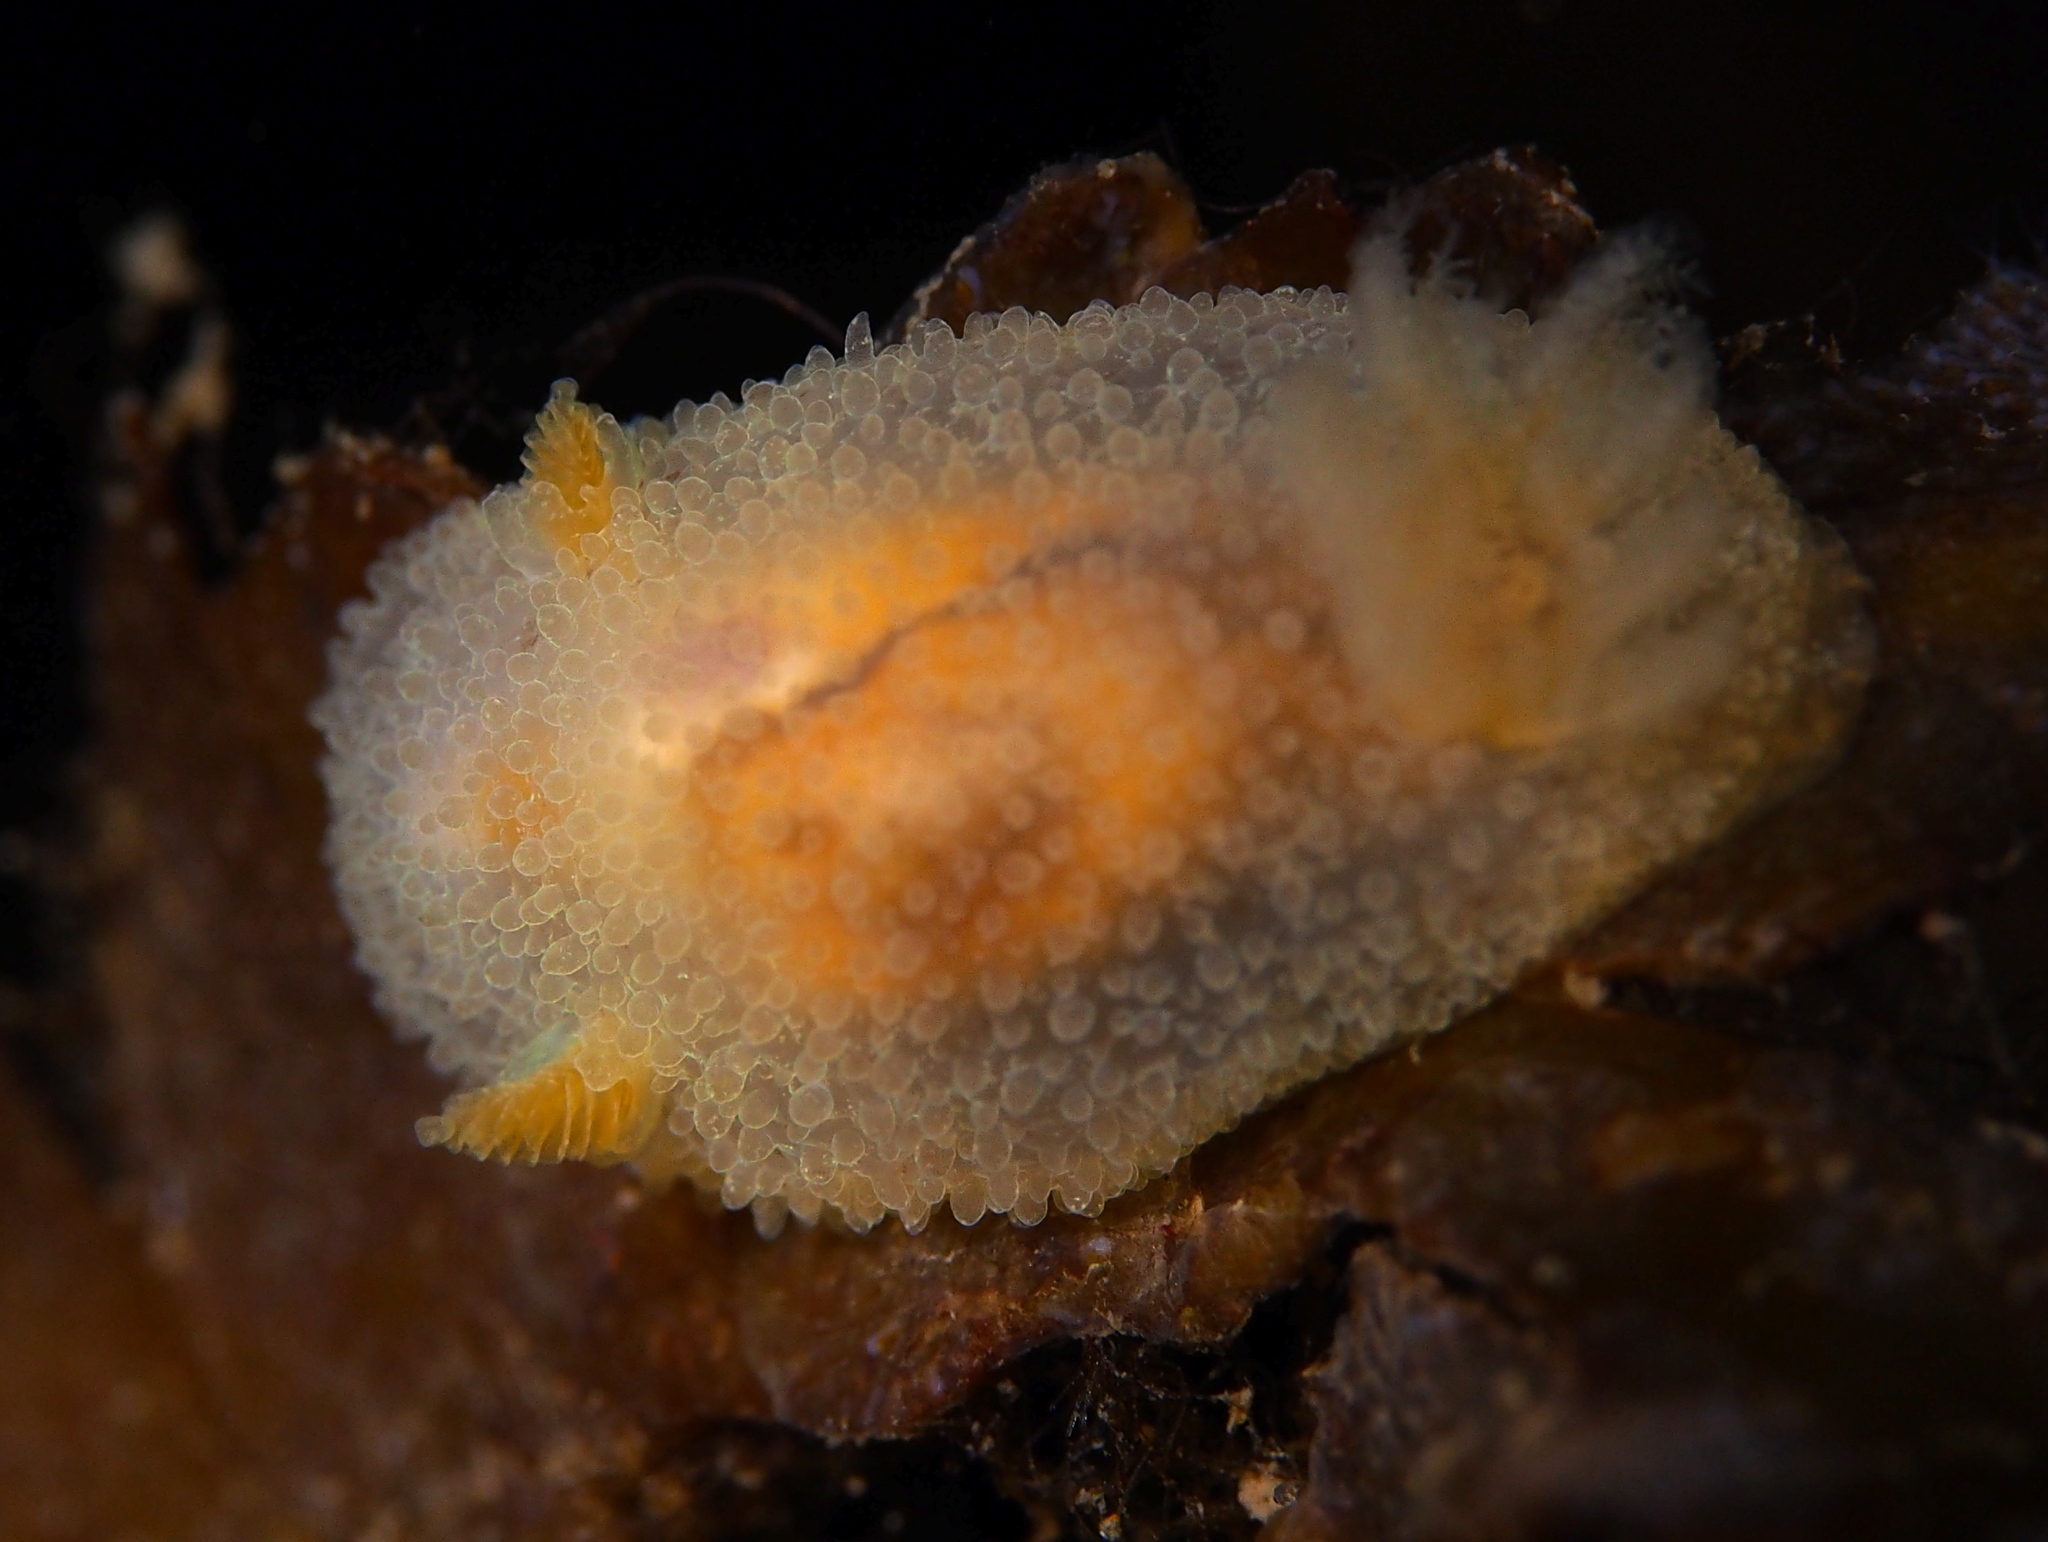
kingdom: Animalia
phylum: Mollusca
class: Gastropoda
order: Nudibranchia
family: Onchidorididae
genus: Acanthodoris
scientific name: Acanthodoris pilosa
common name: Hairy spiny doris
